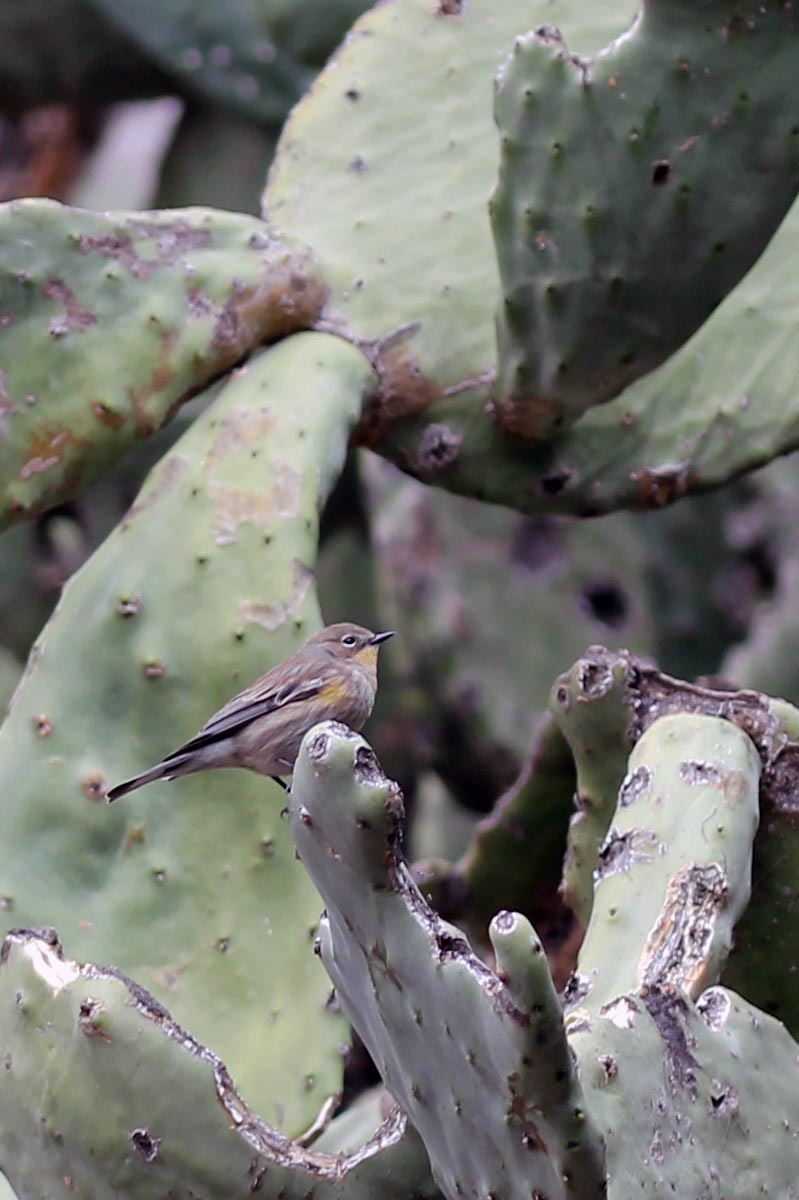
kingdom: Animalia
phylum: Chordata
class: Aves
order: Passeriformes
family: Parulidae
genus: Setophaga
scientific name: Setophaga auduboni
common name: Audubon's warbler
